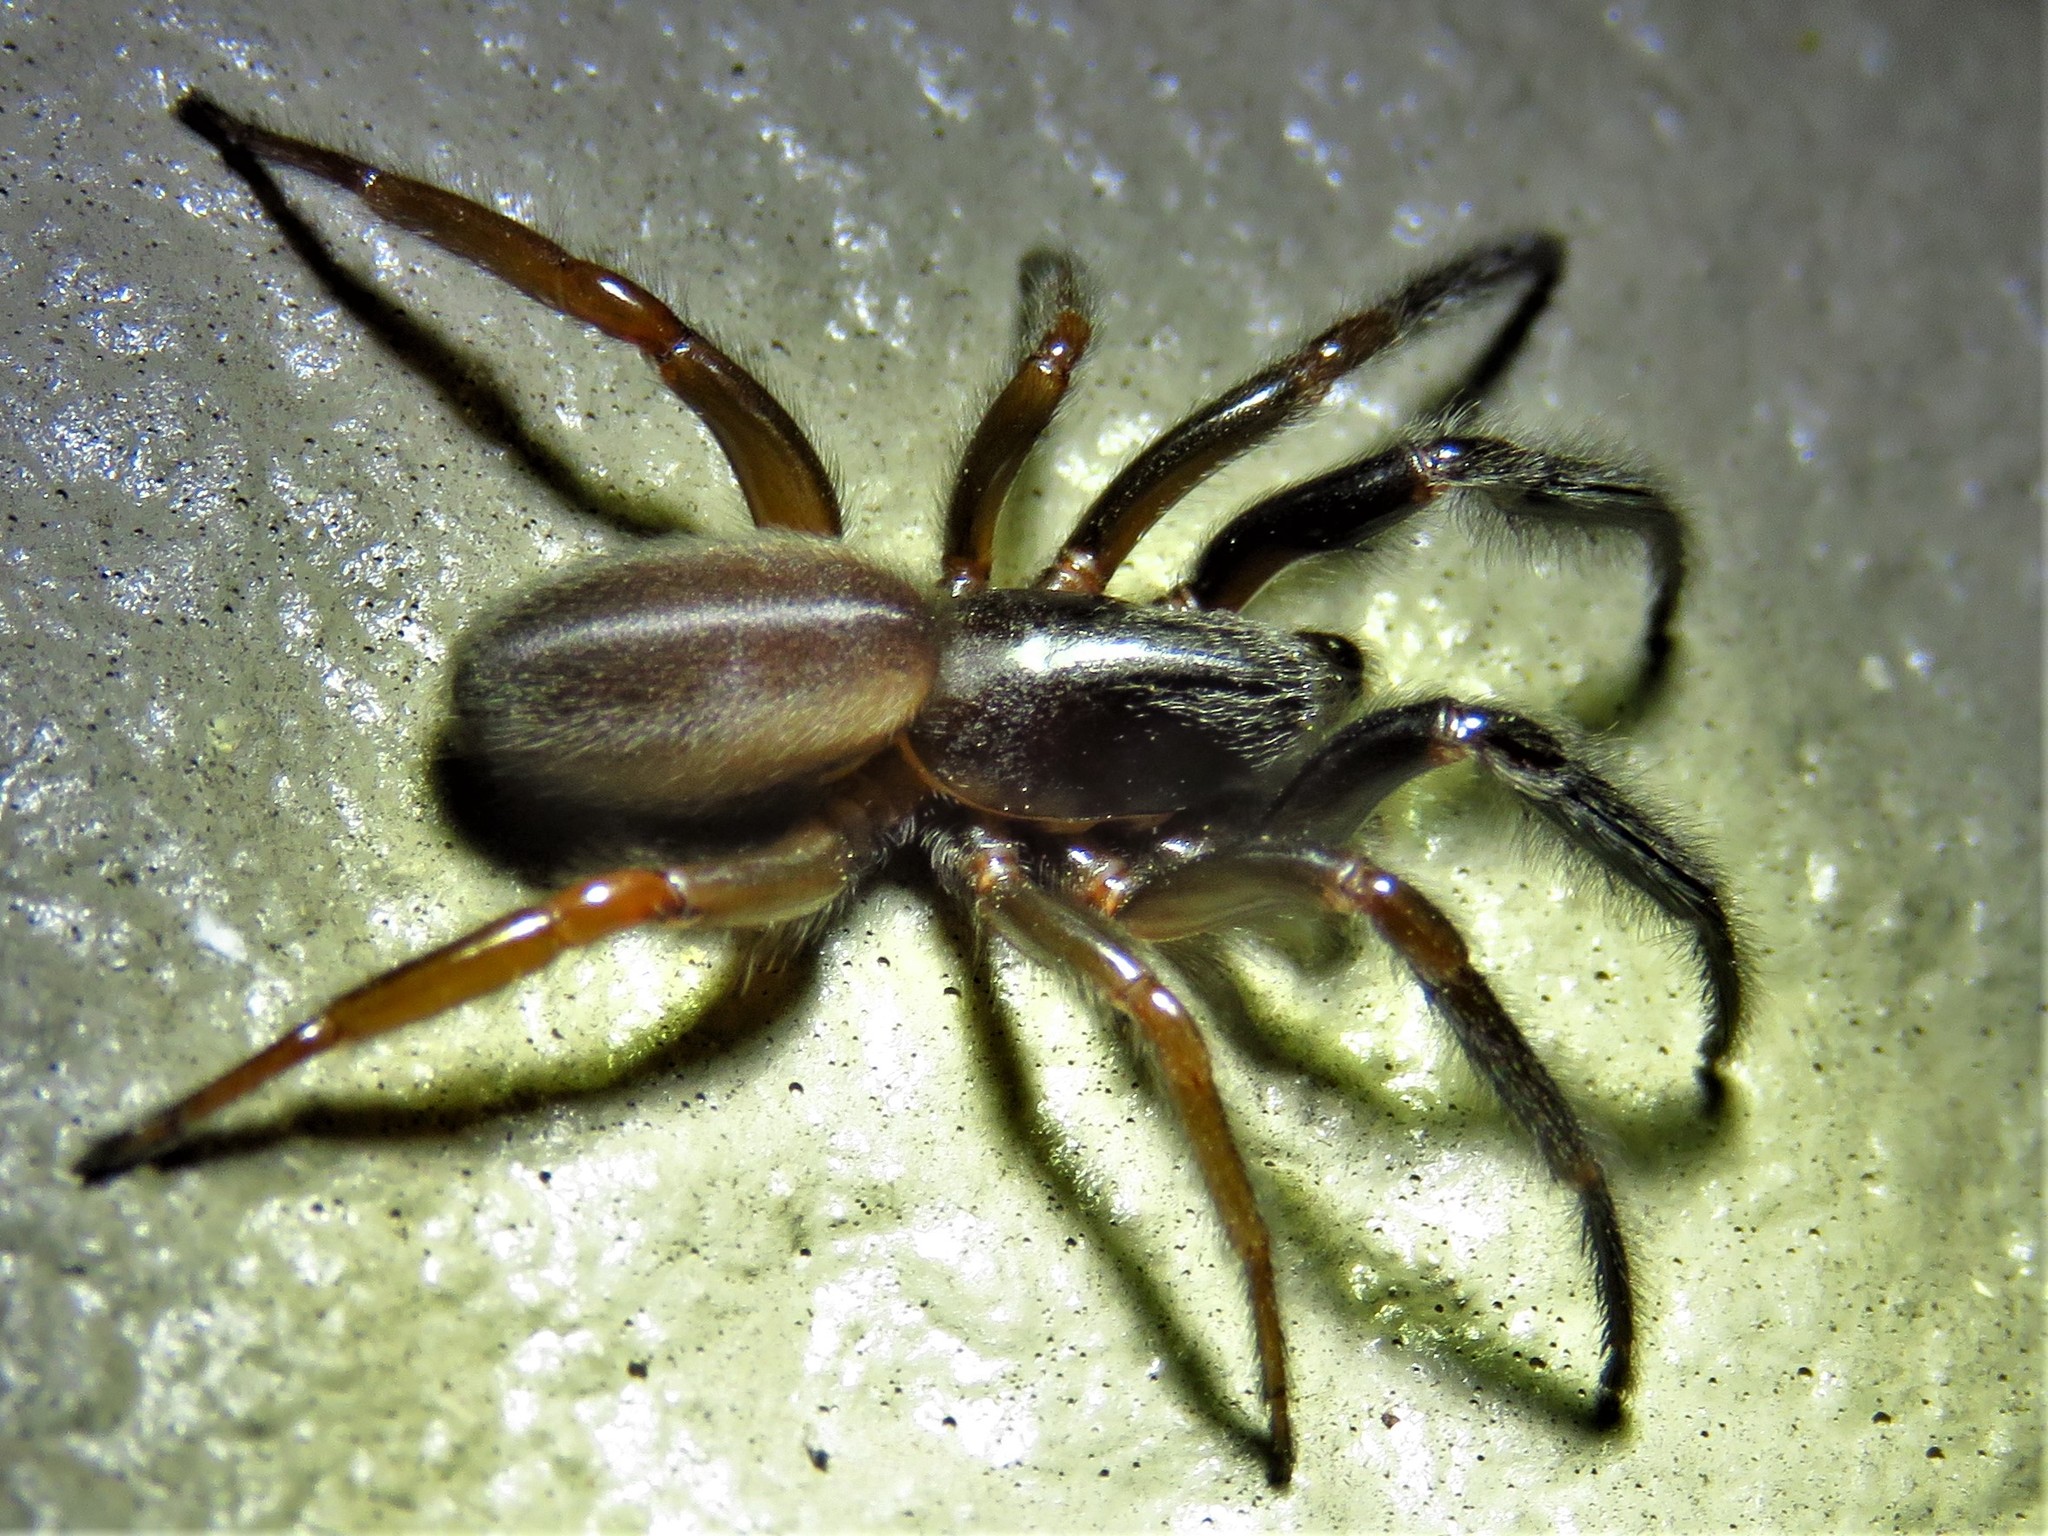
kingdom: Animalia
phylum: Arthropoda
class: Arachnida
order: Araneae
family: Segestriidae
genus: Ariadna
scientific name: Ariadna bicolor
